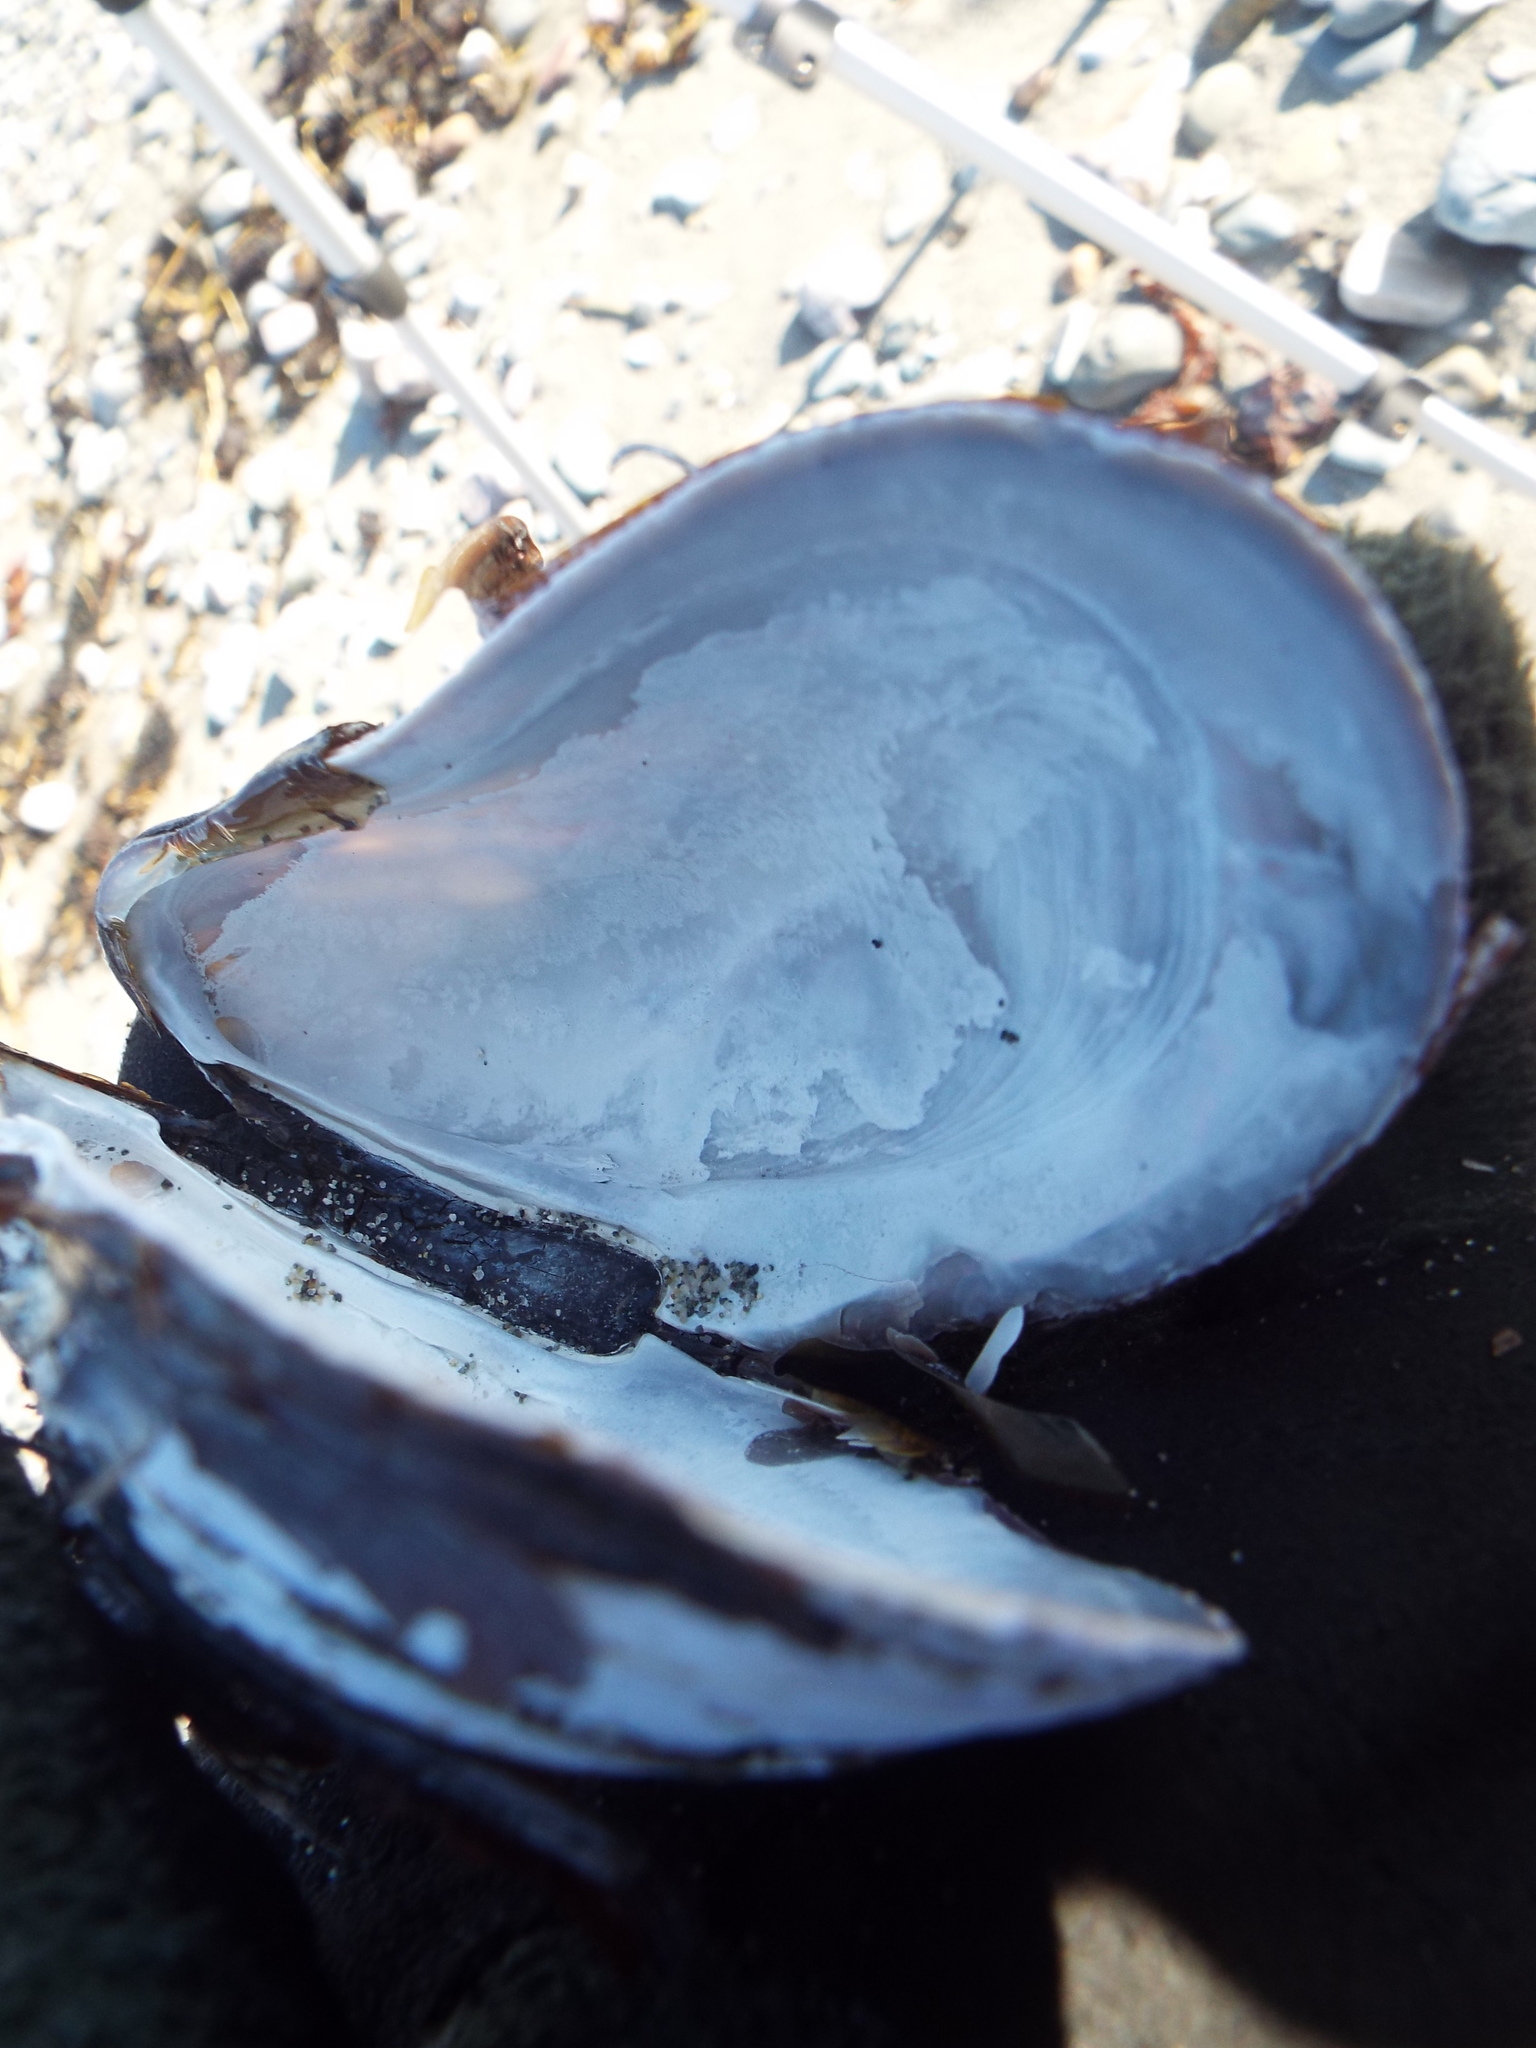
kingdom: Animalia
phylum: Mollusca
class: Bivalvia
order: Mytilida
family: Mytilidae
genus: Modiolus
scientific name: Modiolus modiolus
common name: Horse-mussel
